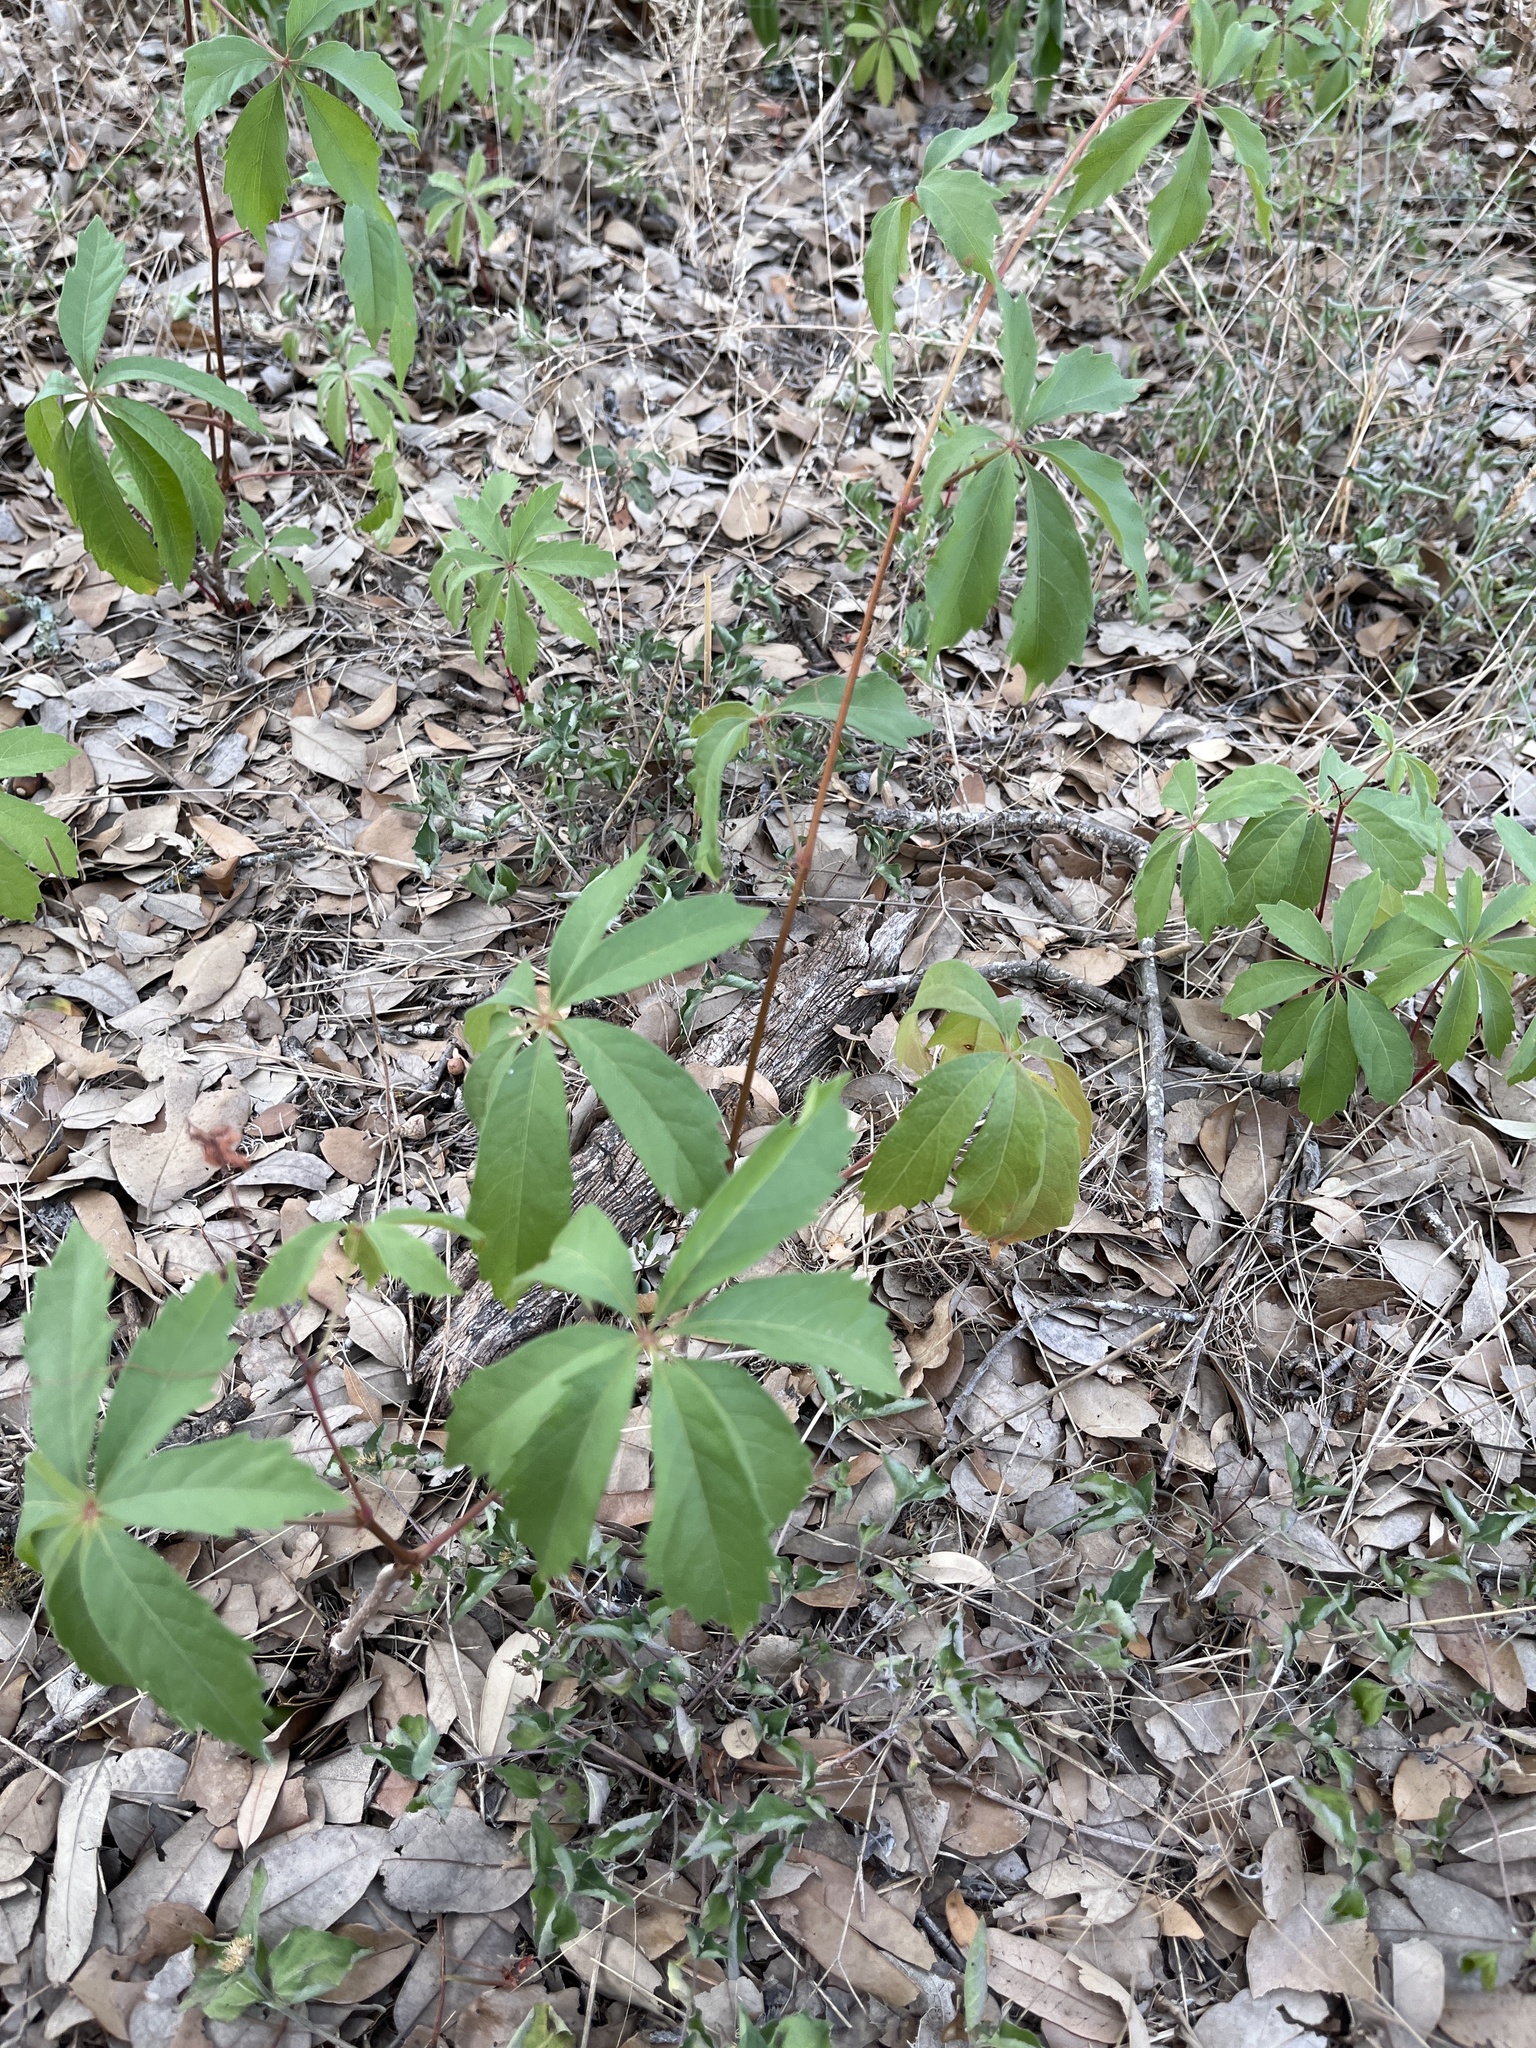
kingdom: Plantae
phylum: Tracheophyta
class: Magnoliopsida
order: Vitales
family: Vitaceae
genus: Parthenocissus
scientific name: Parthenocissus heptaphylla
